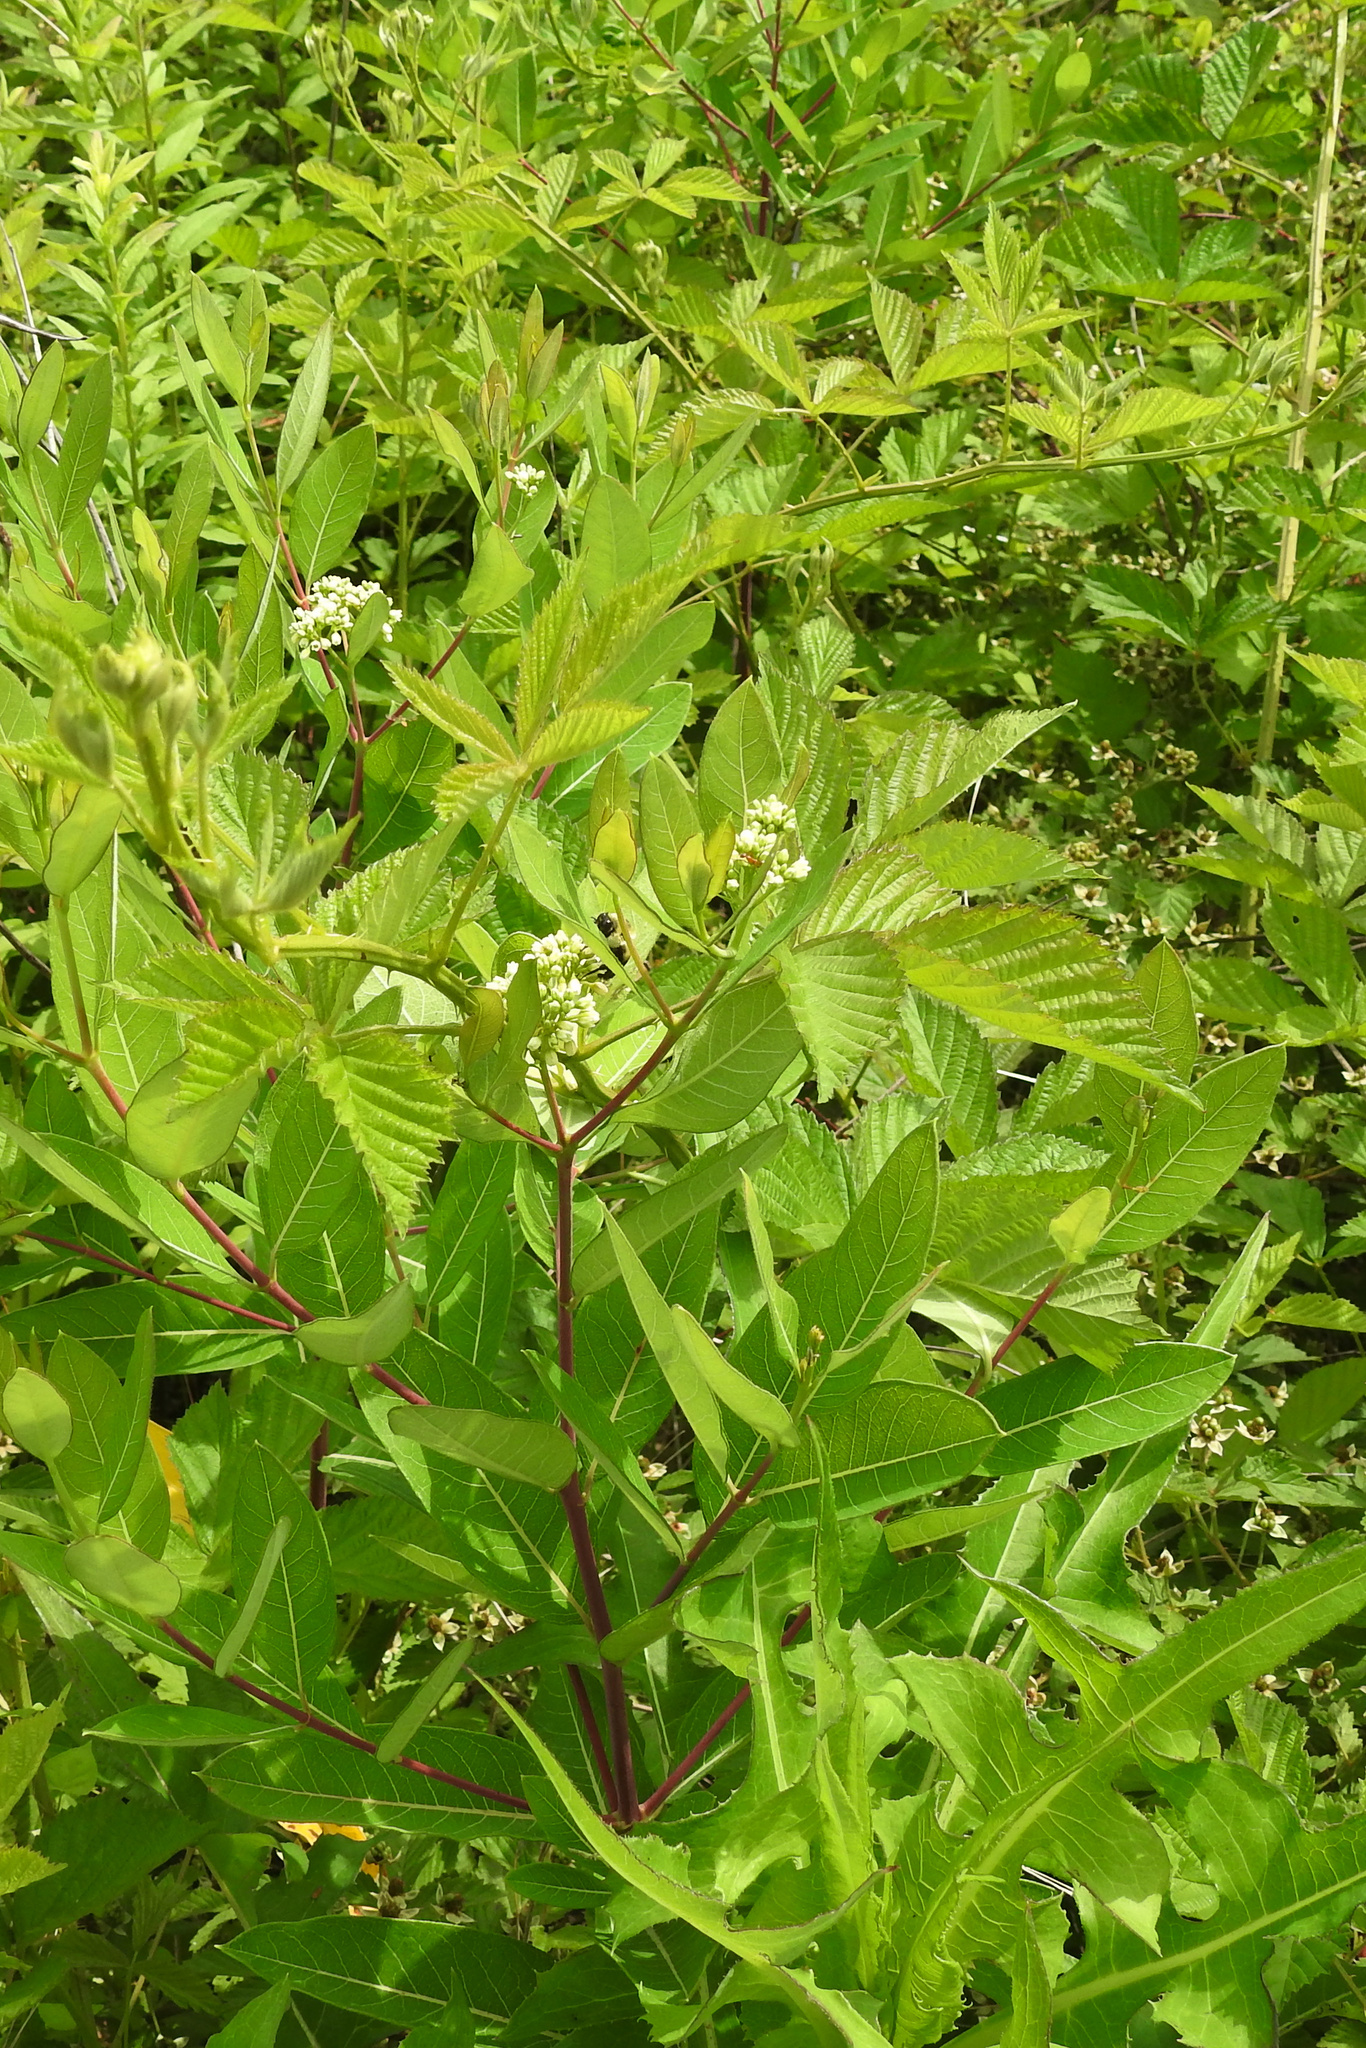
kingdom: Plantae
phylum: Tracheophyta
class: Magnoliopsida
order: Gentianales
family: Apocynaceae
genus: Apocynum
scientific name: Apocynum cannabinum
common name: Hemp dogbane
